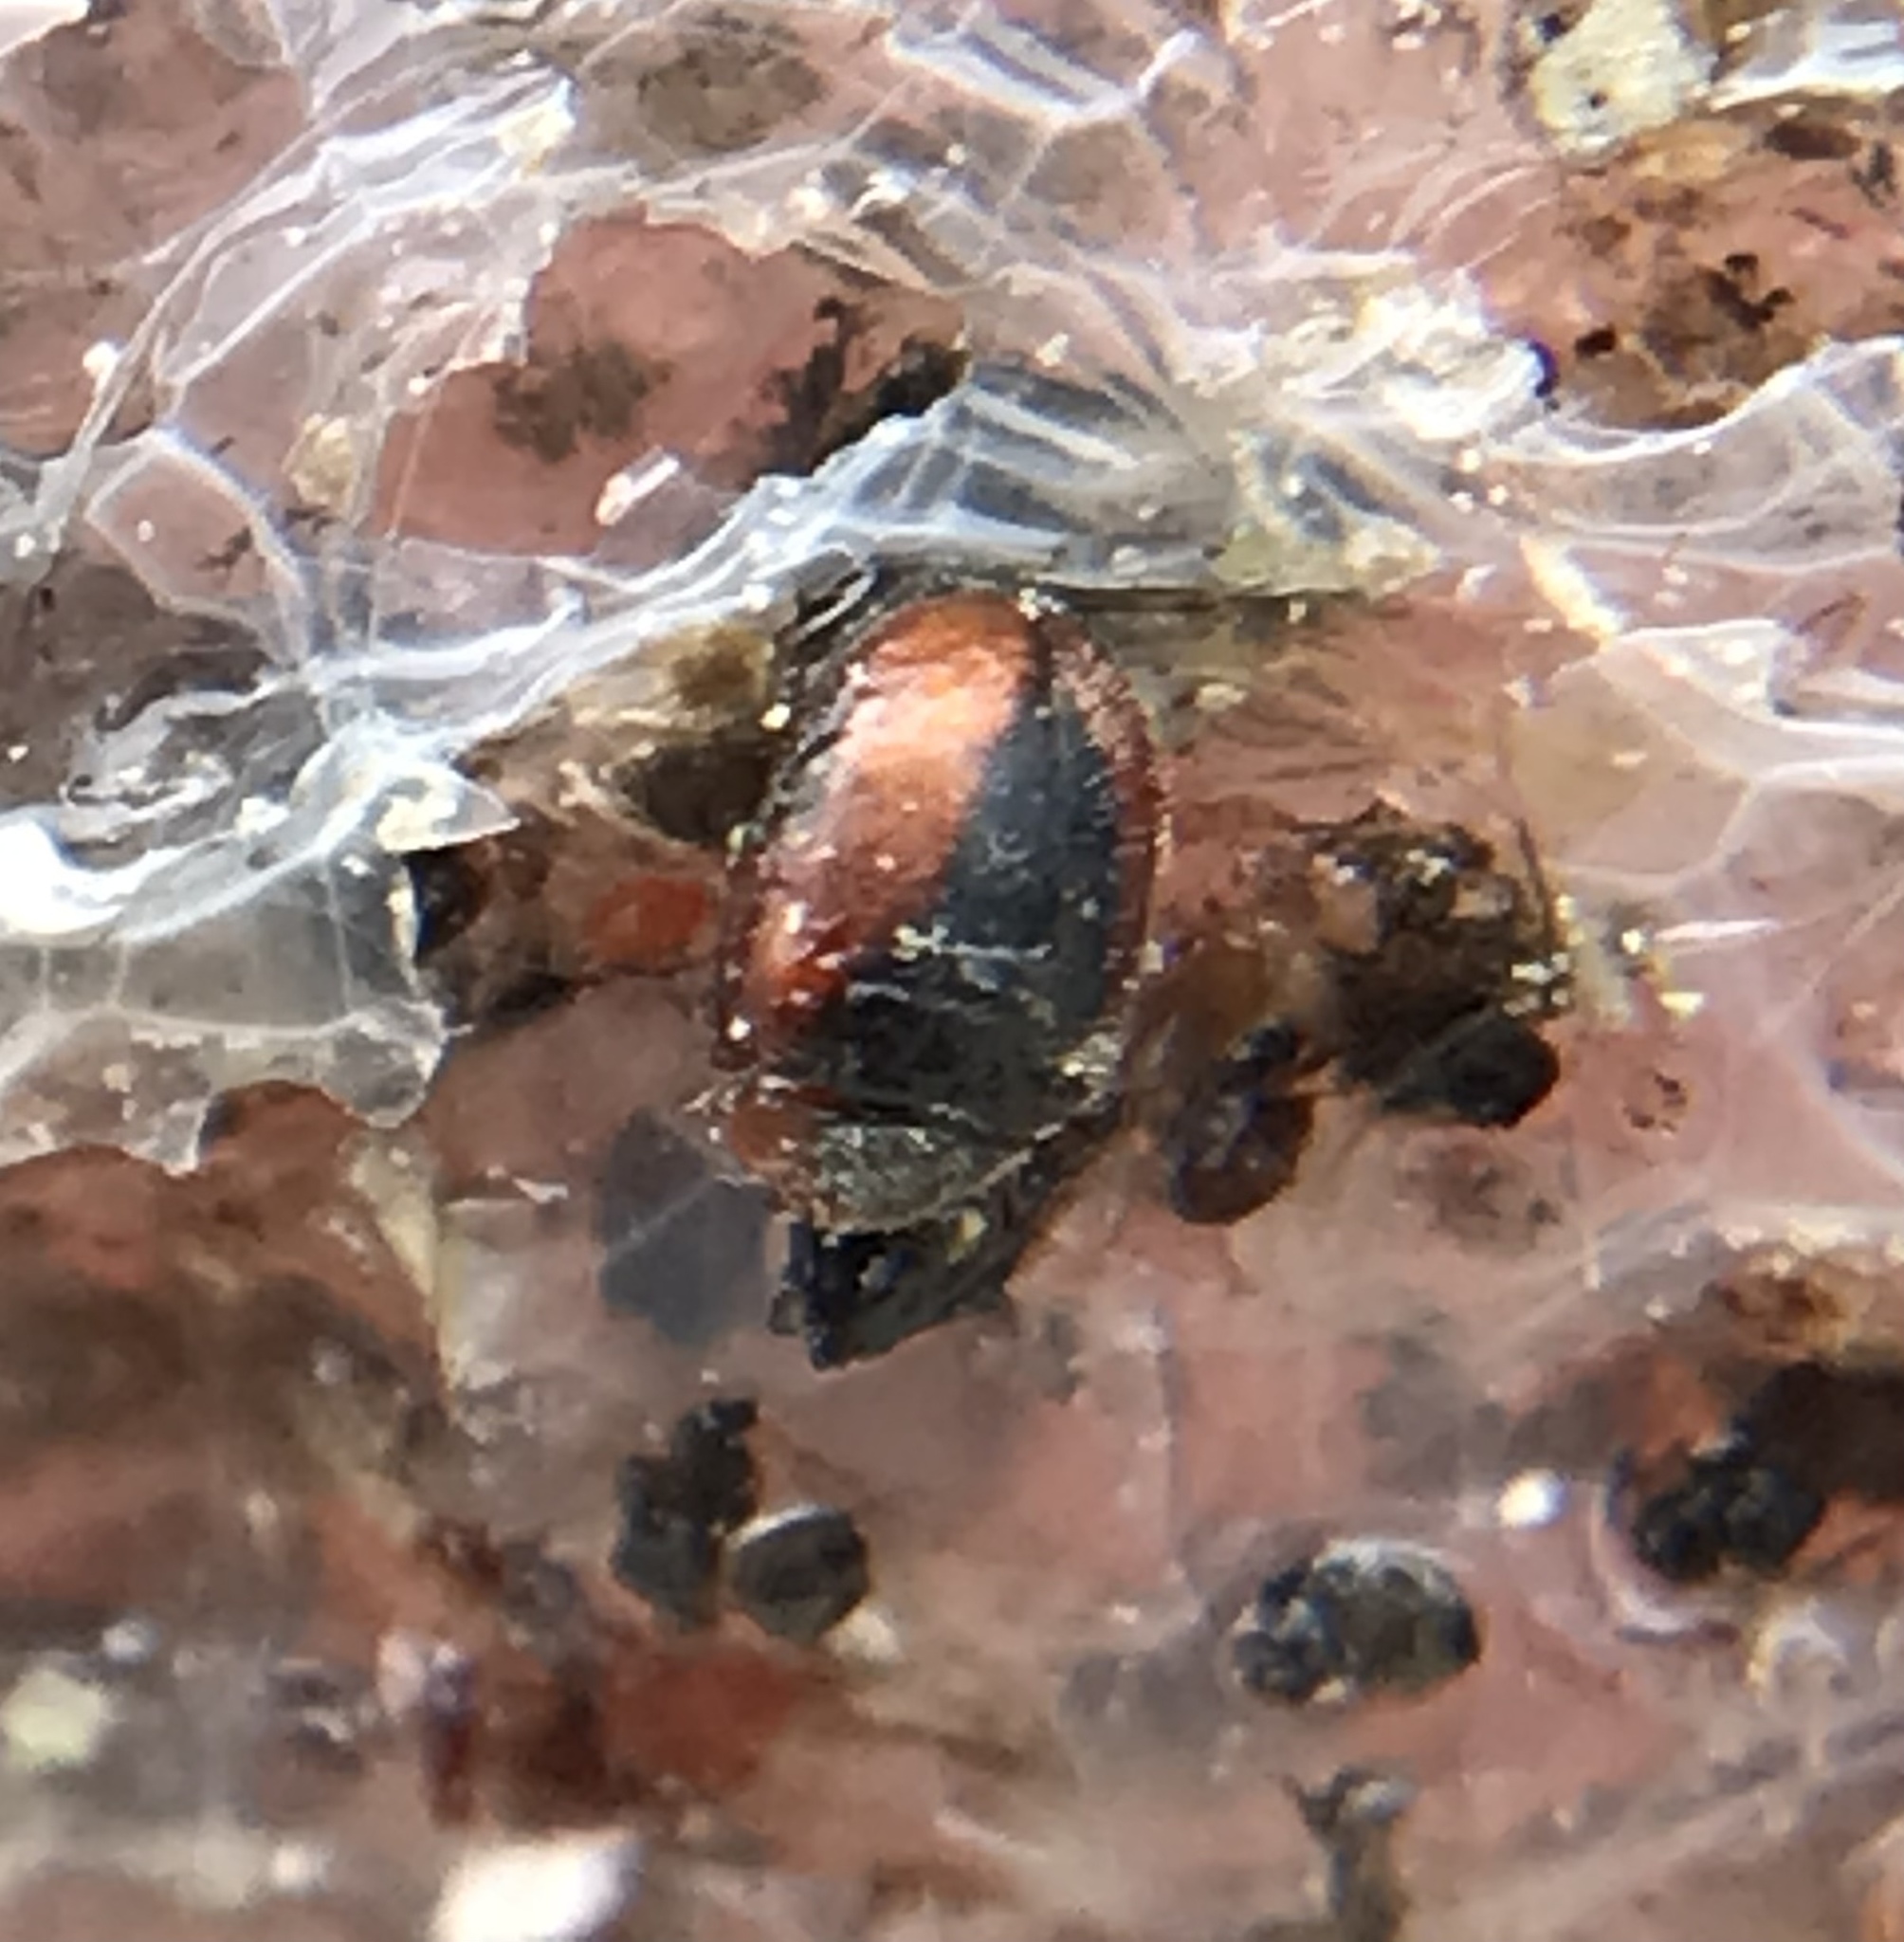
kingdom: Animalia
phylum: Arthropoda
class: Insecta
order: Coleoptera
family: Coccinellidae
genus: Scymnus
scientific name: Scymnus loewii
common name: Dusky lady beetle
